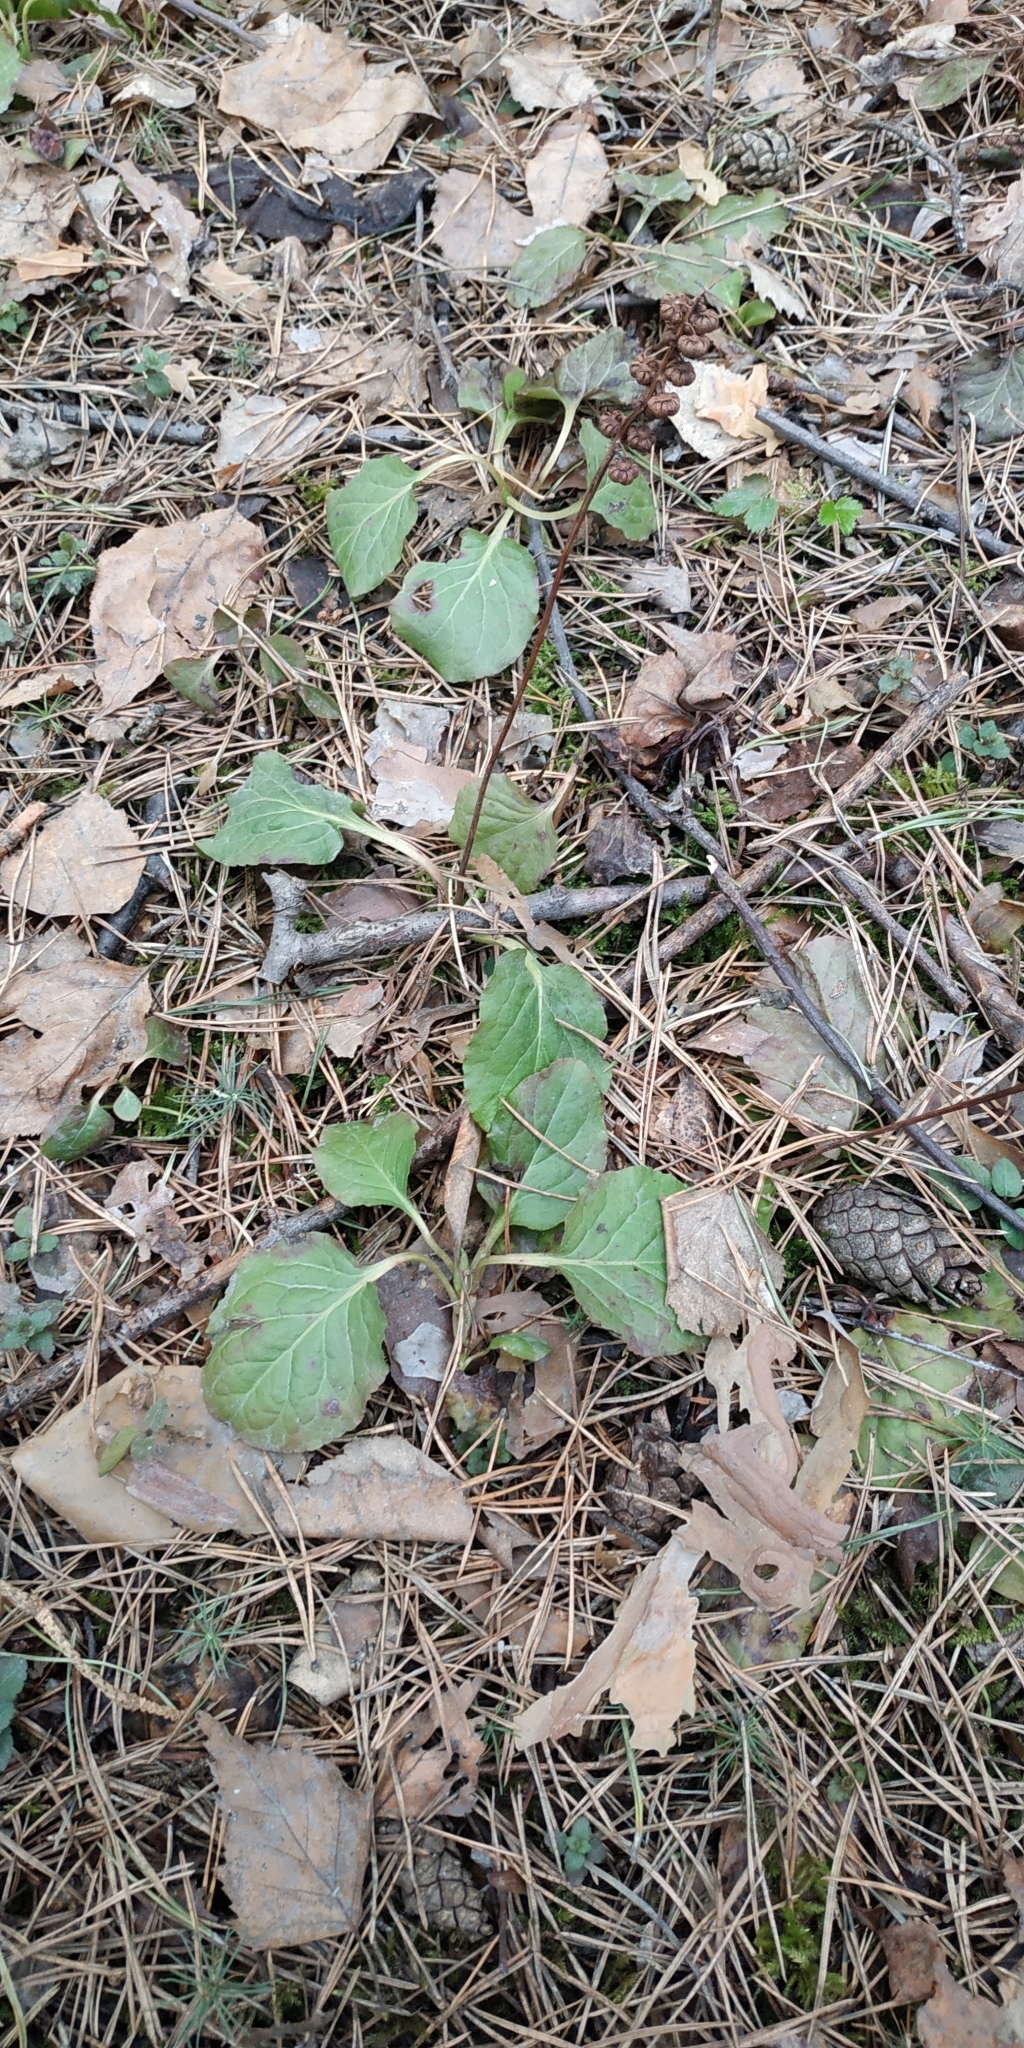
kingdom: Plantae
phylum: Tracheophyta
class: Magnoliopsida
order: Ericales
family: Ericaceae
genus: Pyrola
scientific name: Pyrola rotundifolia
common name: Round-leaved wintergreen
